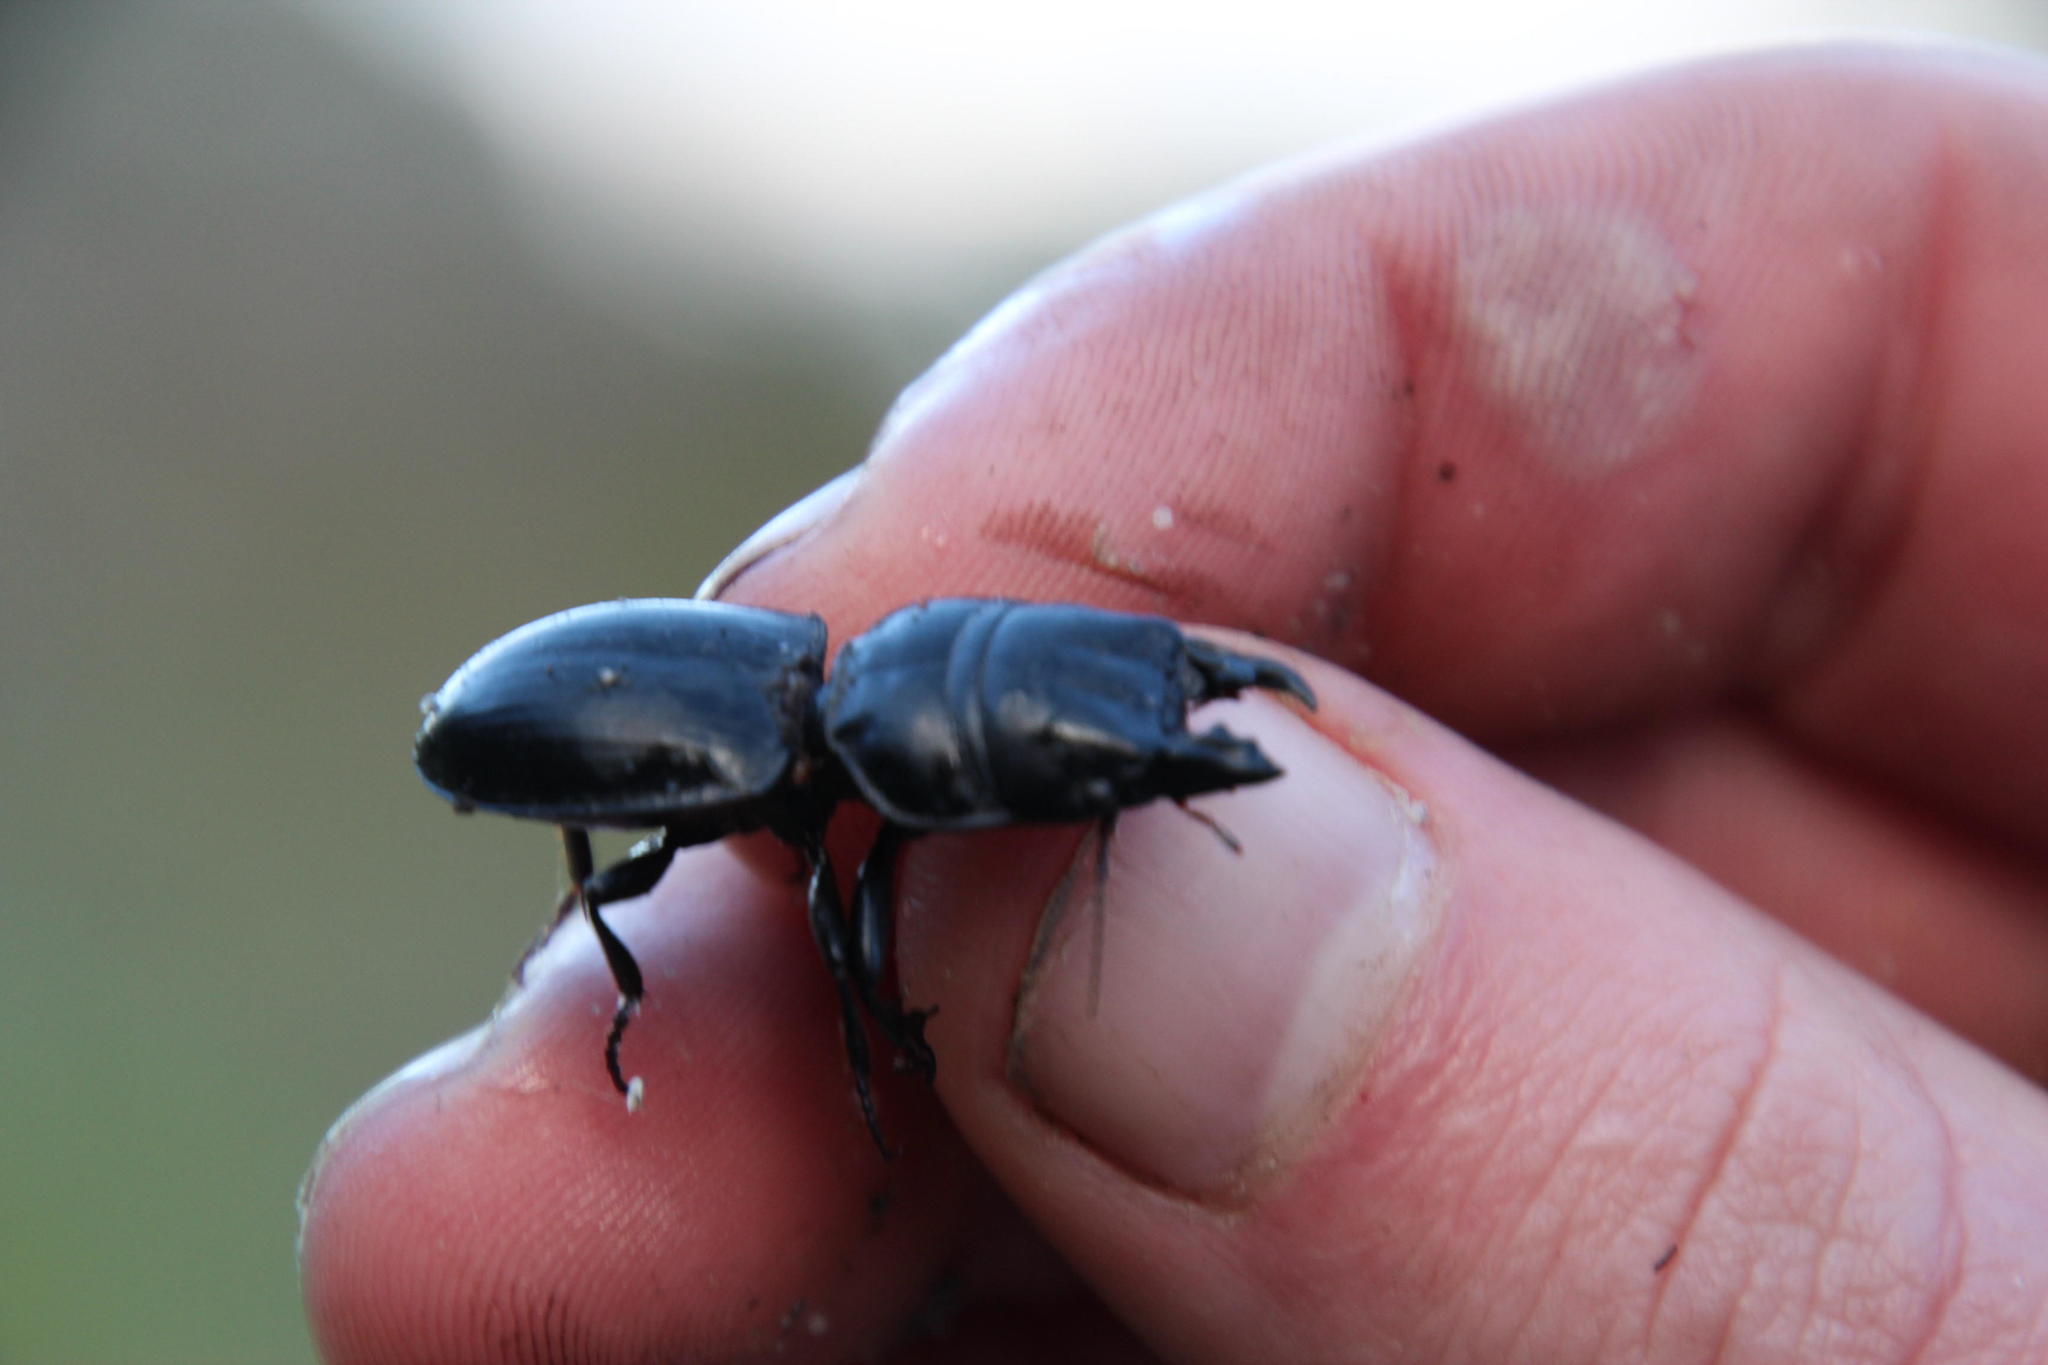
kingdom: Animalia
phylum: Arthropoda
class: Insecta
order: Coleoptera
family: Carabidae
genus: Pachyodontus
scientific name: Pachyodontus languidus
